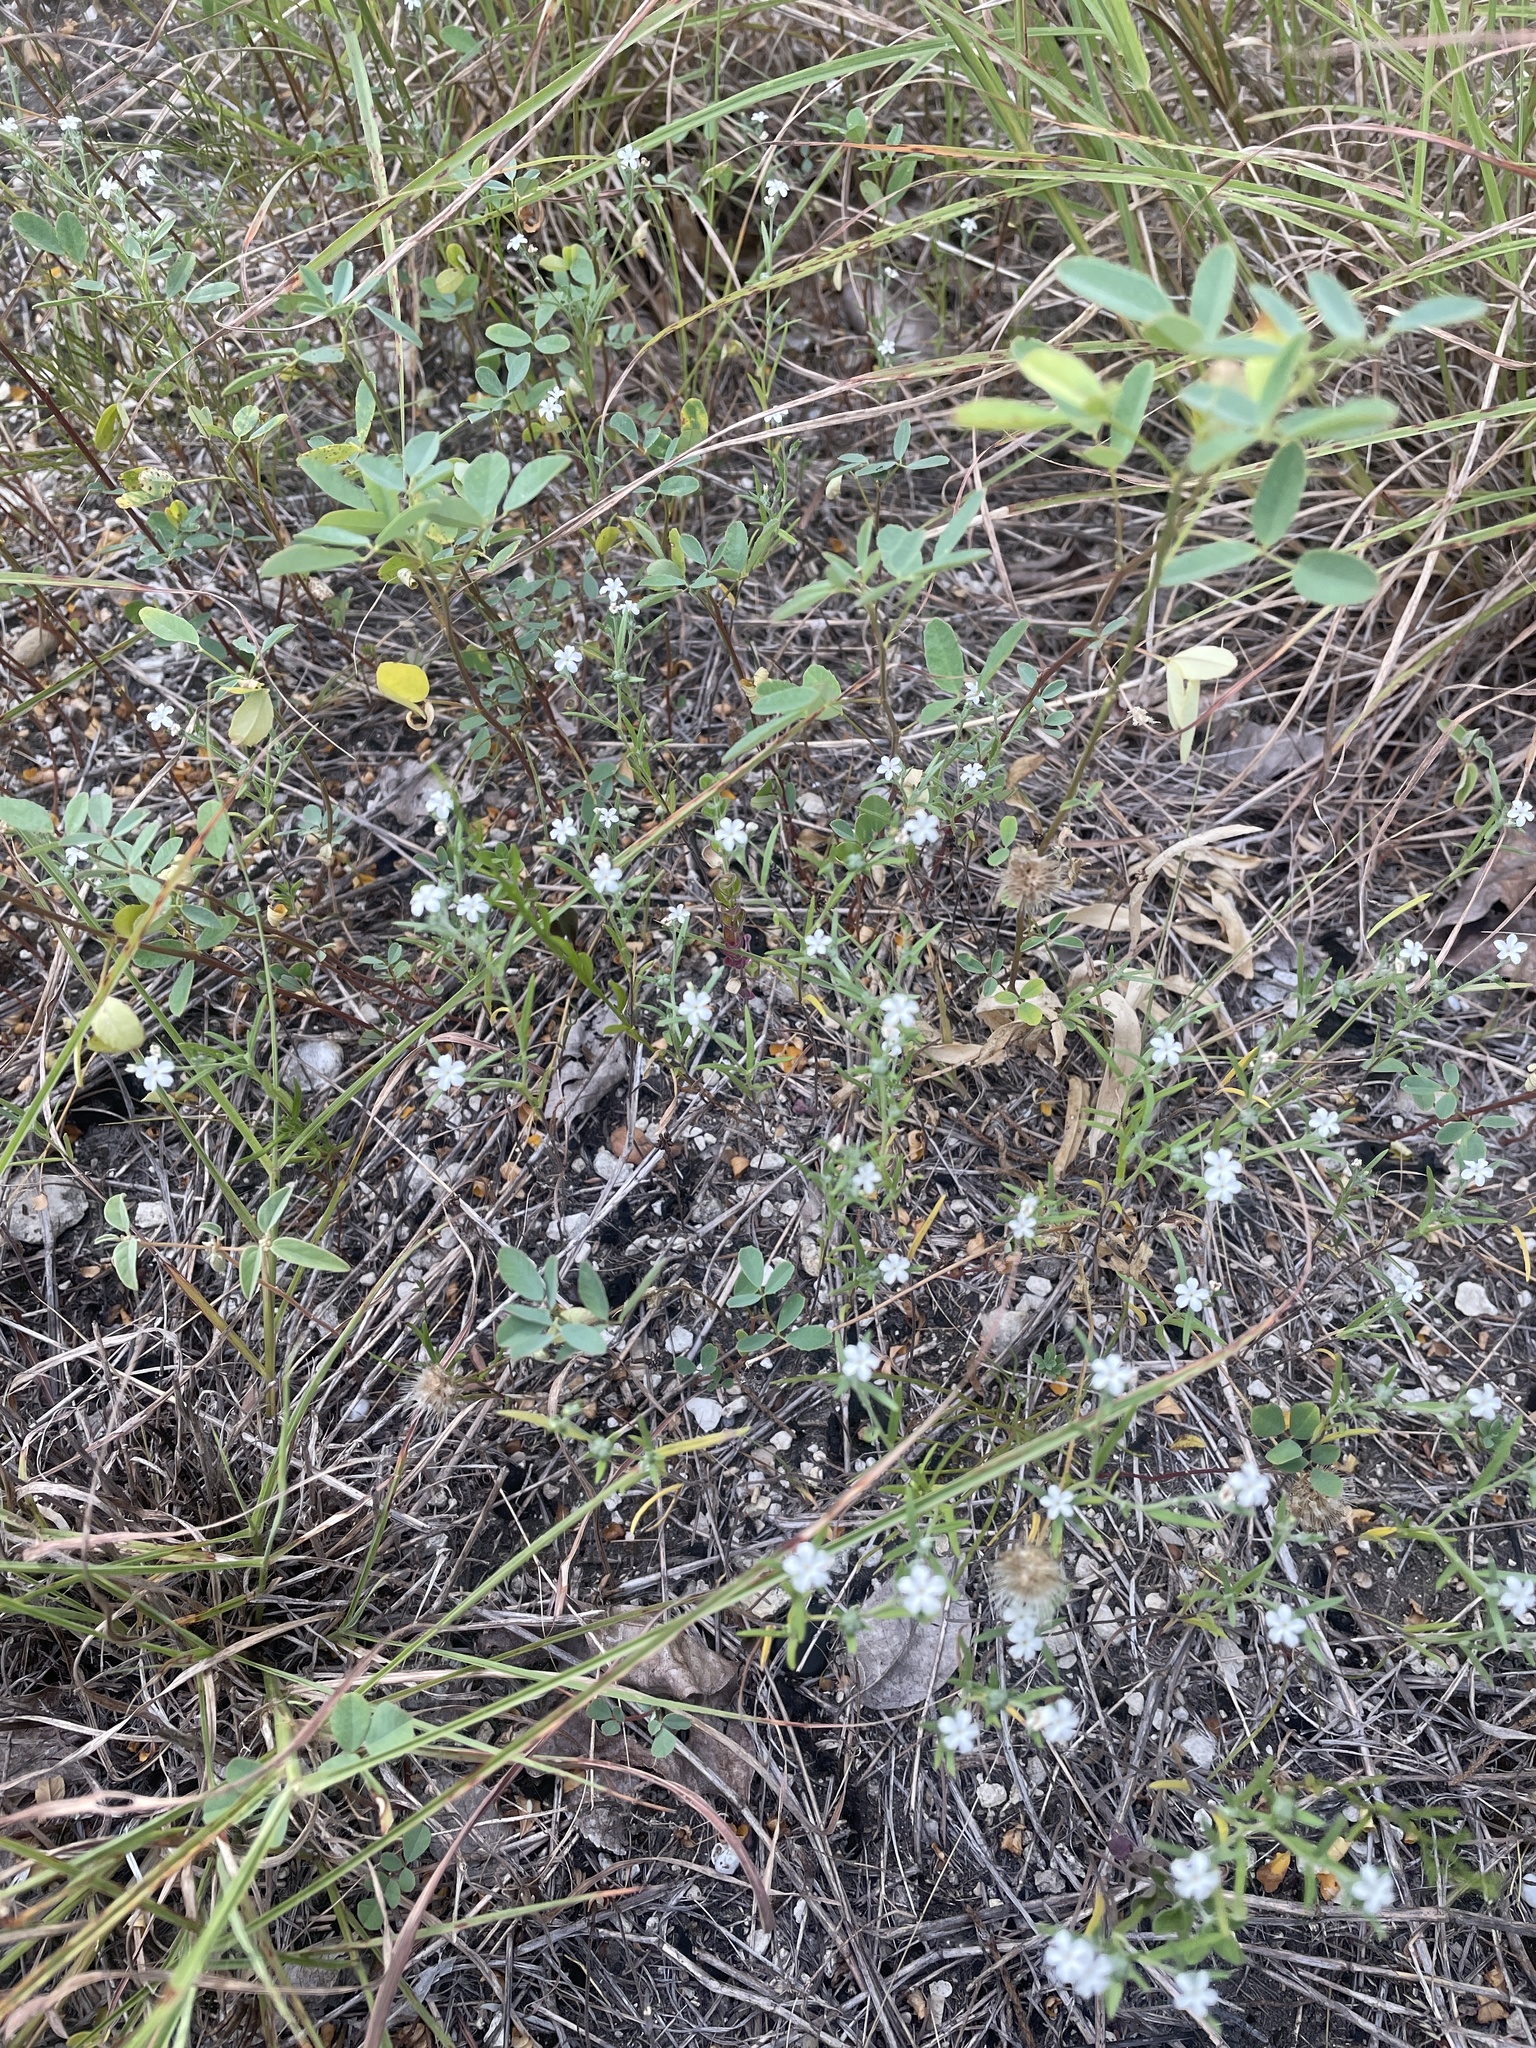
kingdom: Plantae
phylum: Tracheophyta
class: Magnoliopsida
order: Boraginales
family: Heliotropiaceae
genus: Euploca
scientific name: Euploca tenella
